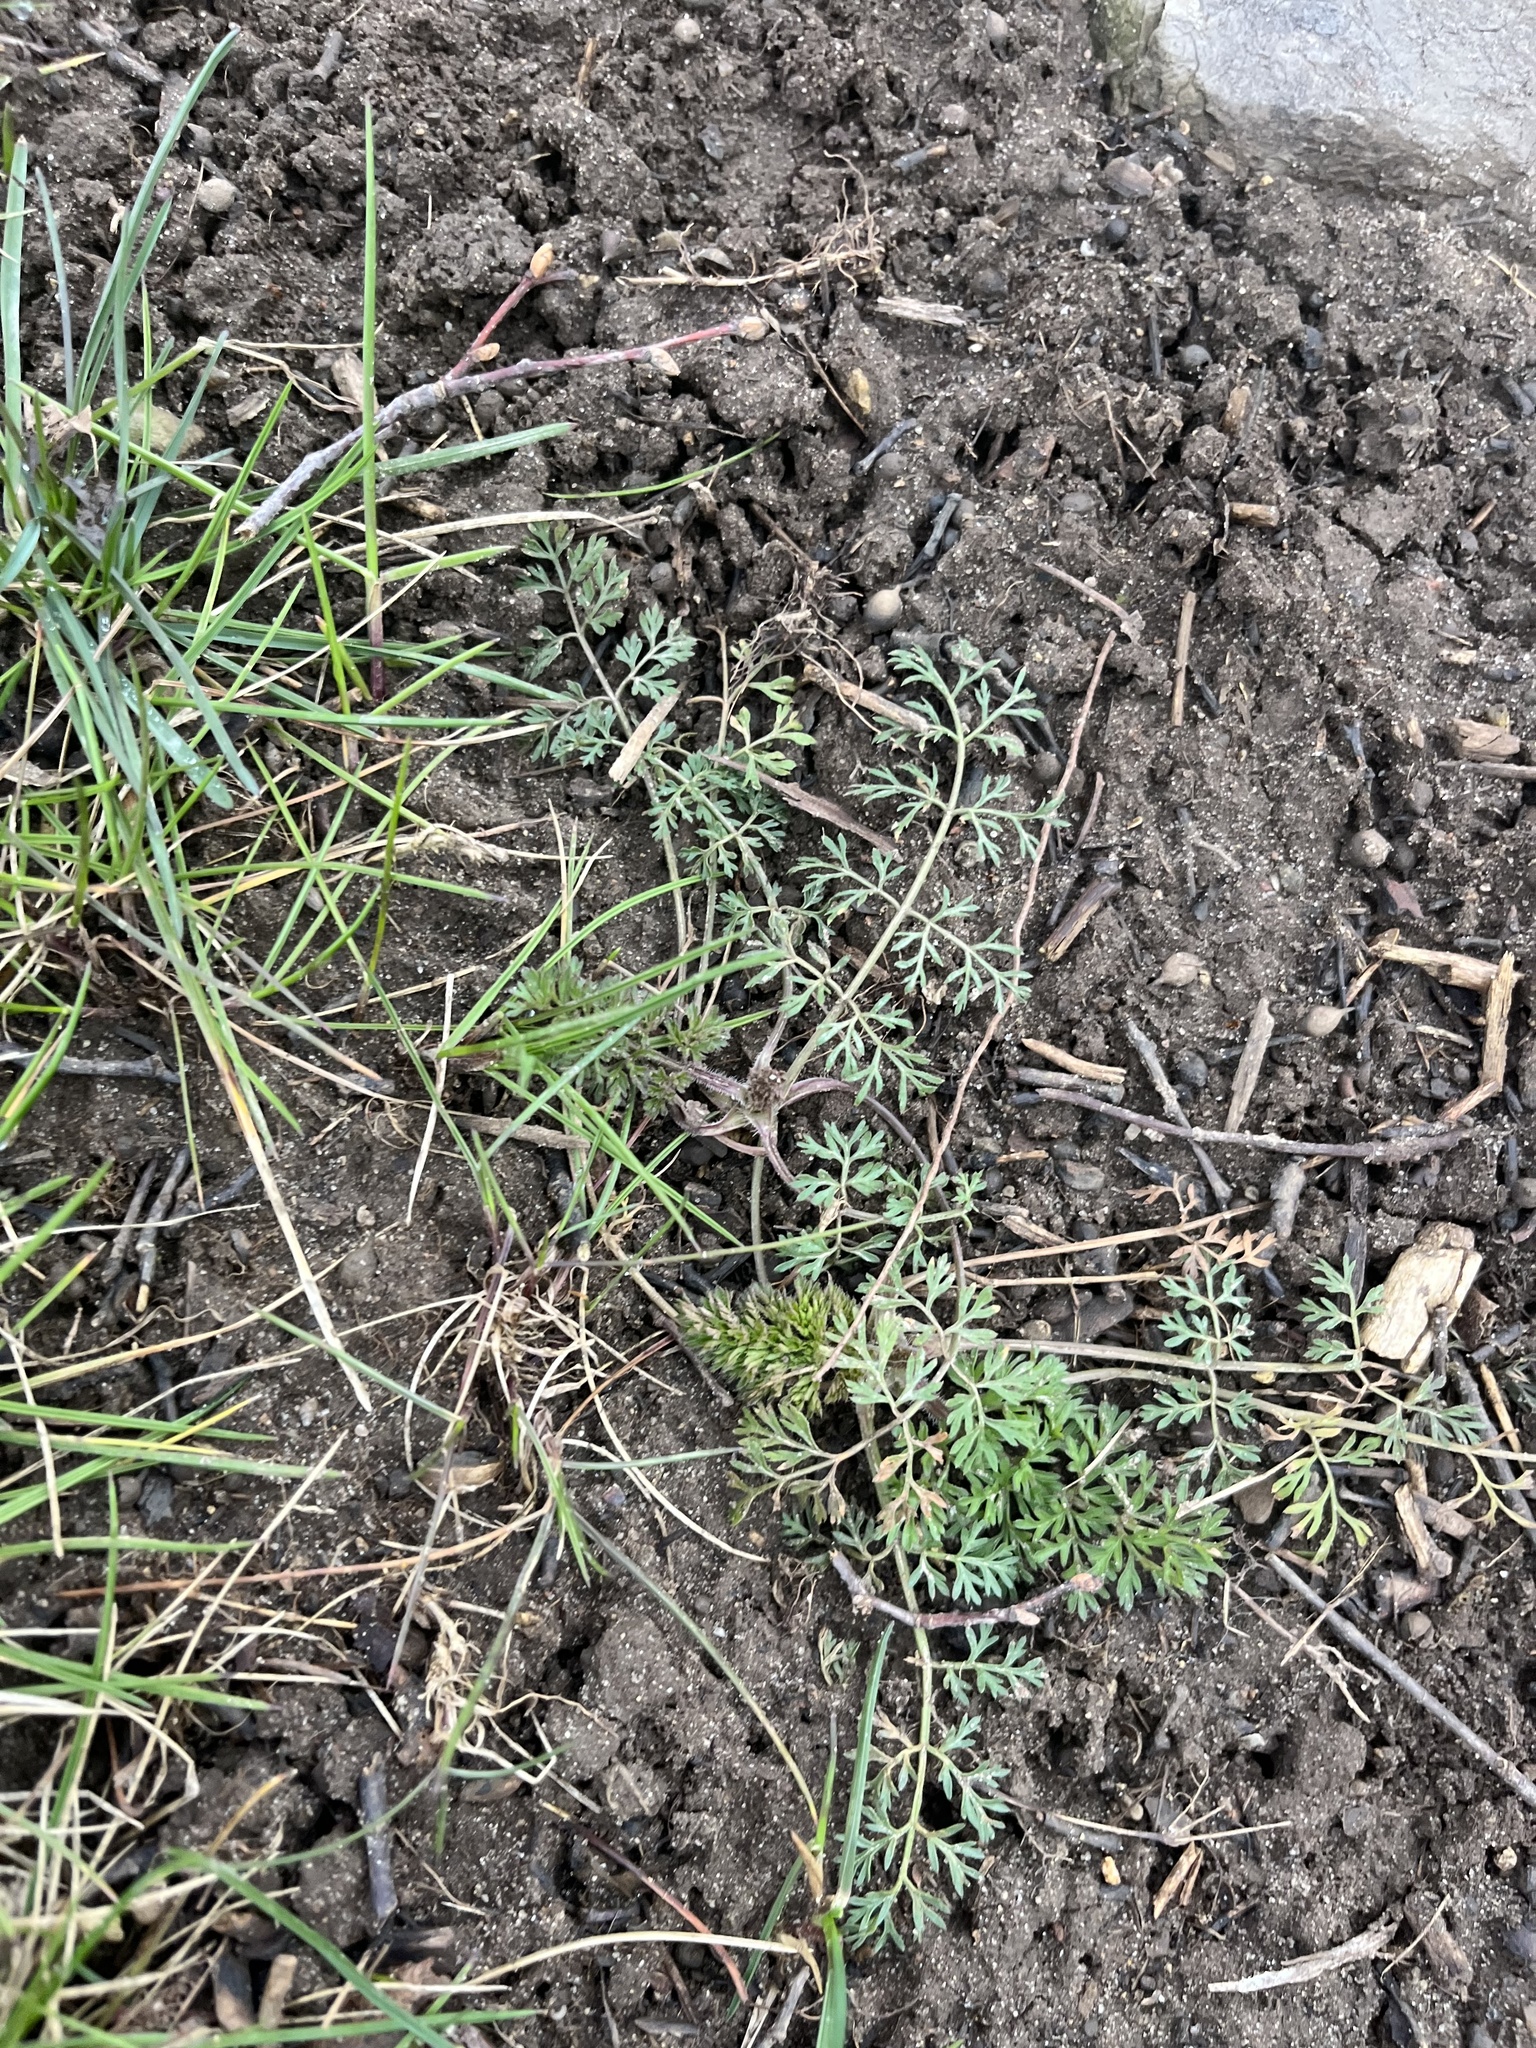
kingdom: Plantae
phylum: Tracheophyta
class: Magnoliopsida
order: Apiales
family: Apiaceae
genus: Daucus
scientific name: Daucus carota
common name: Wild carrot
